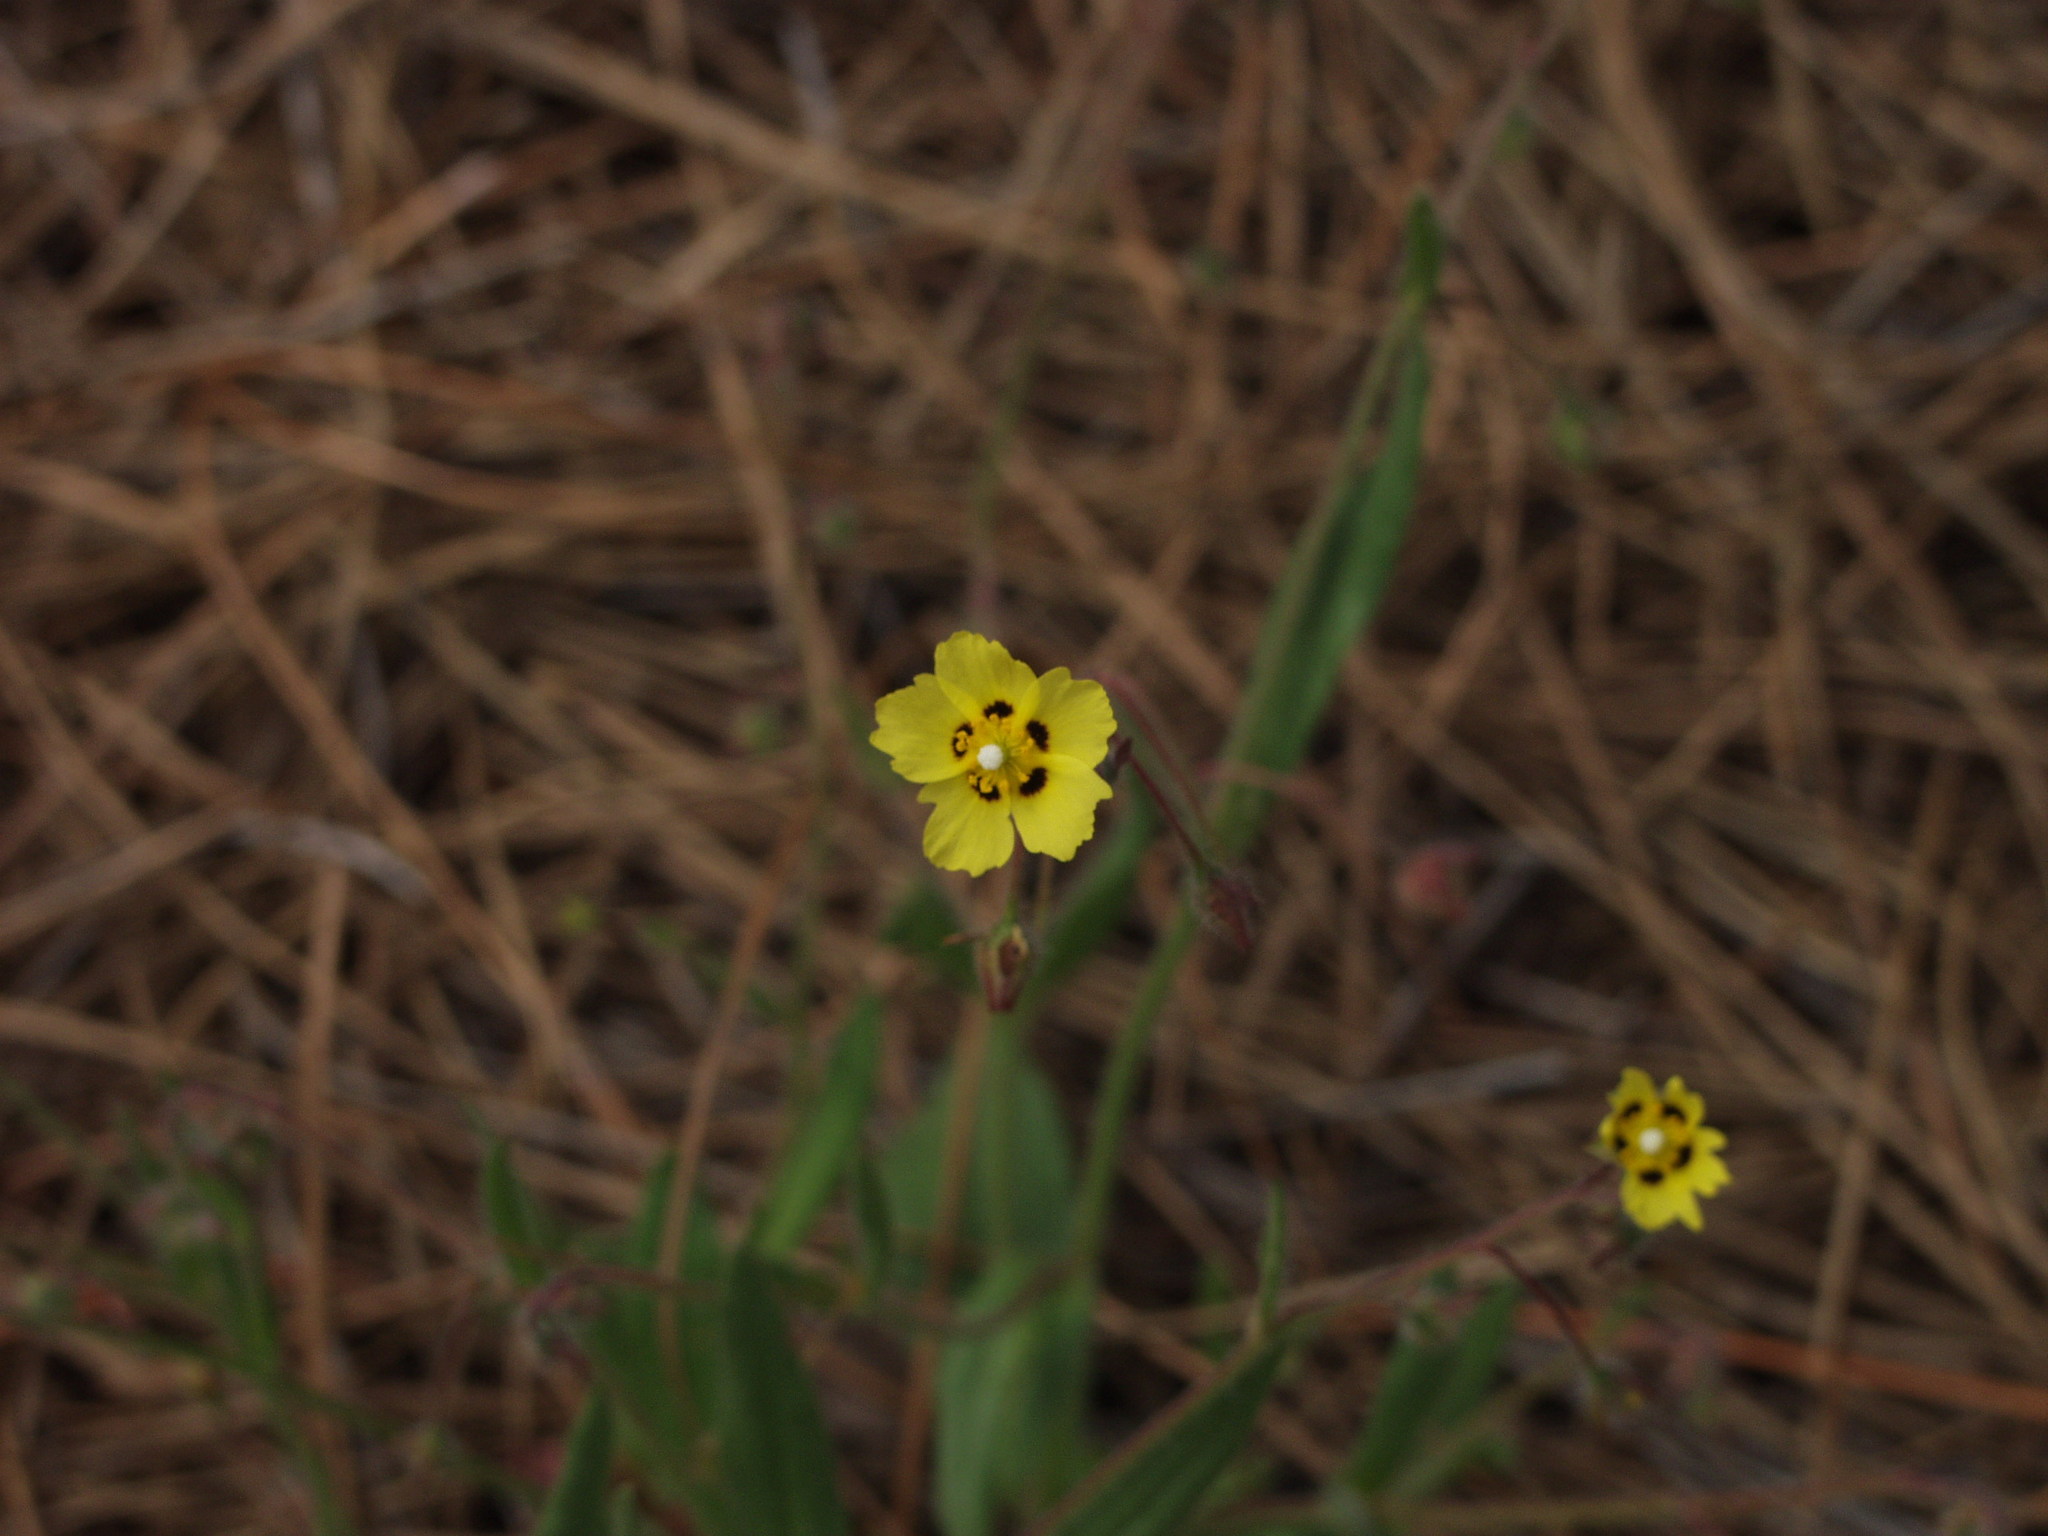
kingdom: Plantae
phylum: Tracheophyta
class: Magnoliopsida
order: Malvales
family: Cistaceae
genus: Tuberaria
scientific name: Tuberaria guttata
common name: Spotted rock-rose
